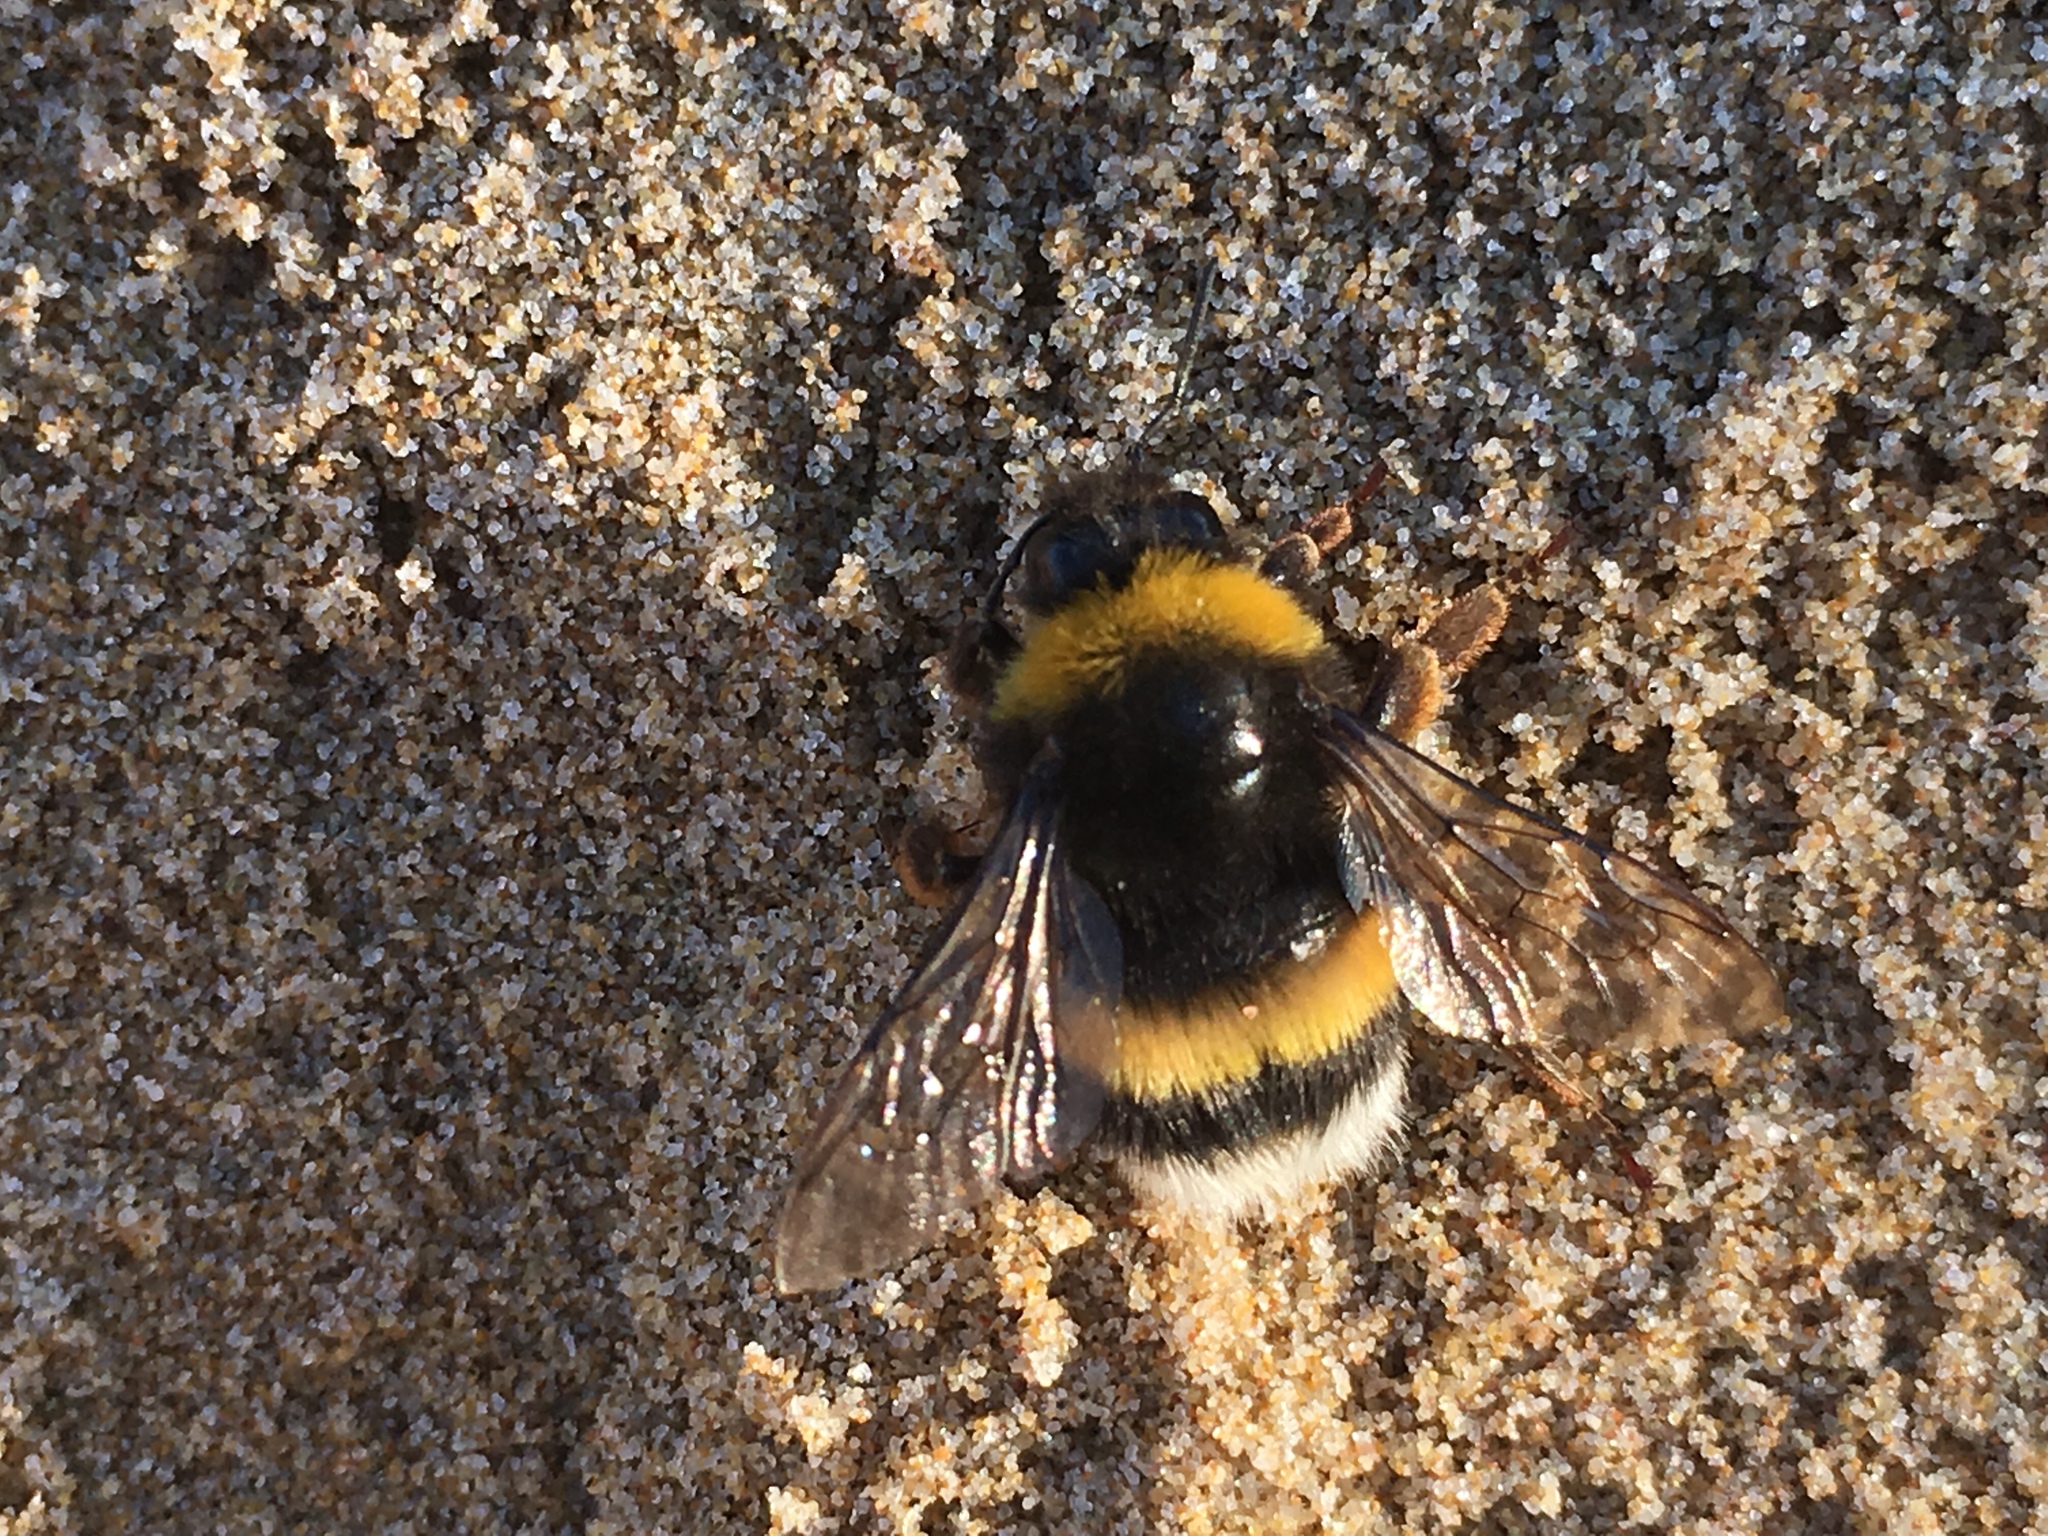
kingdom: Animalia
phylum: Arthropoda
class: Insecta
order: Hymenoptera
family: Apidae
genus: Bombus
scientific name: Bombus terrestris
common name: Buff-tailed bumblebee
